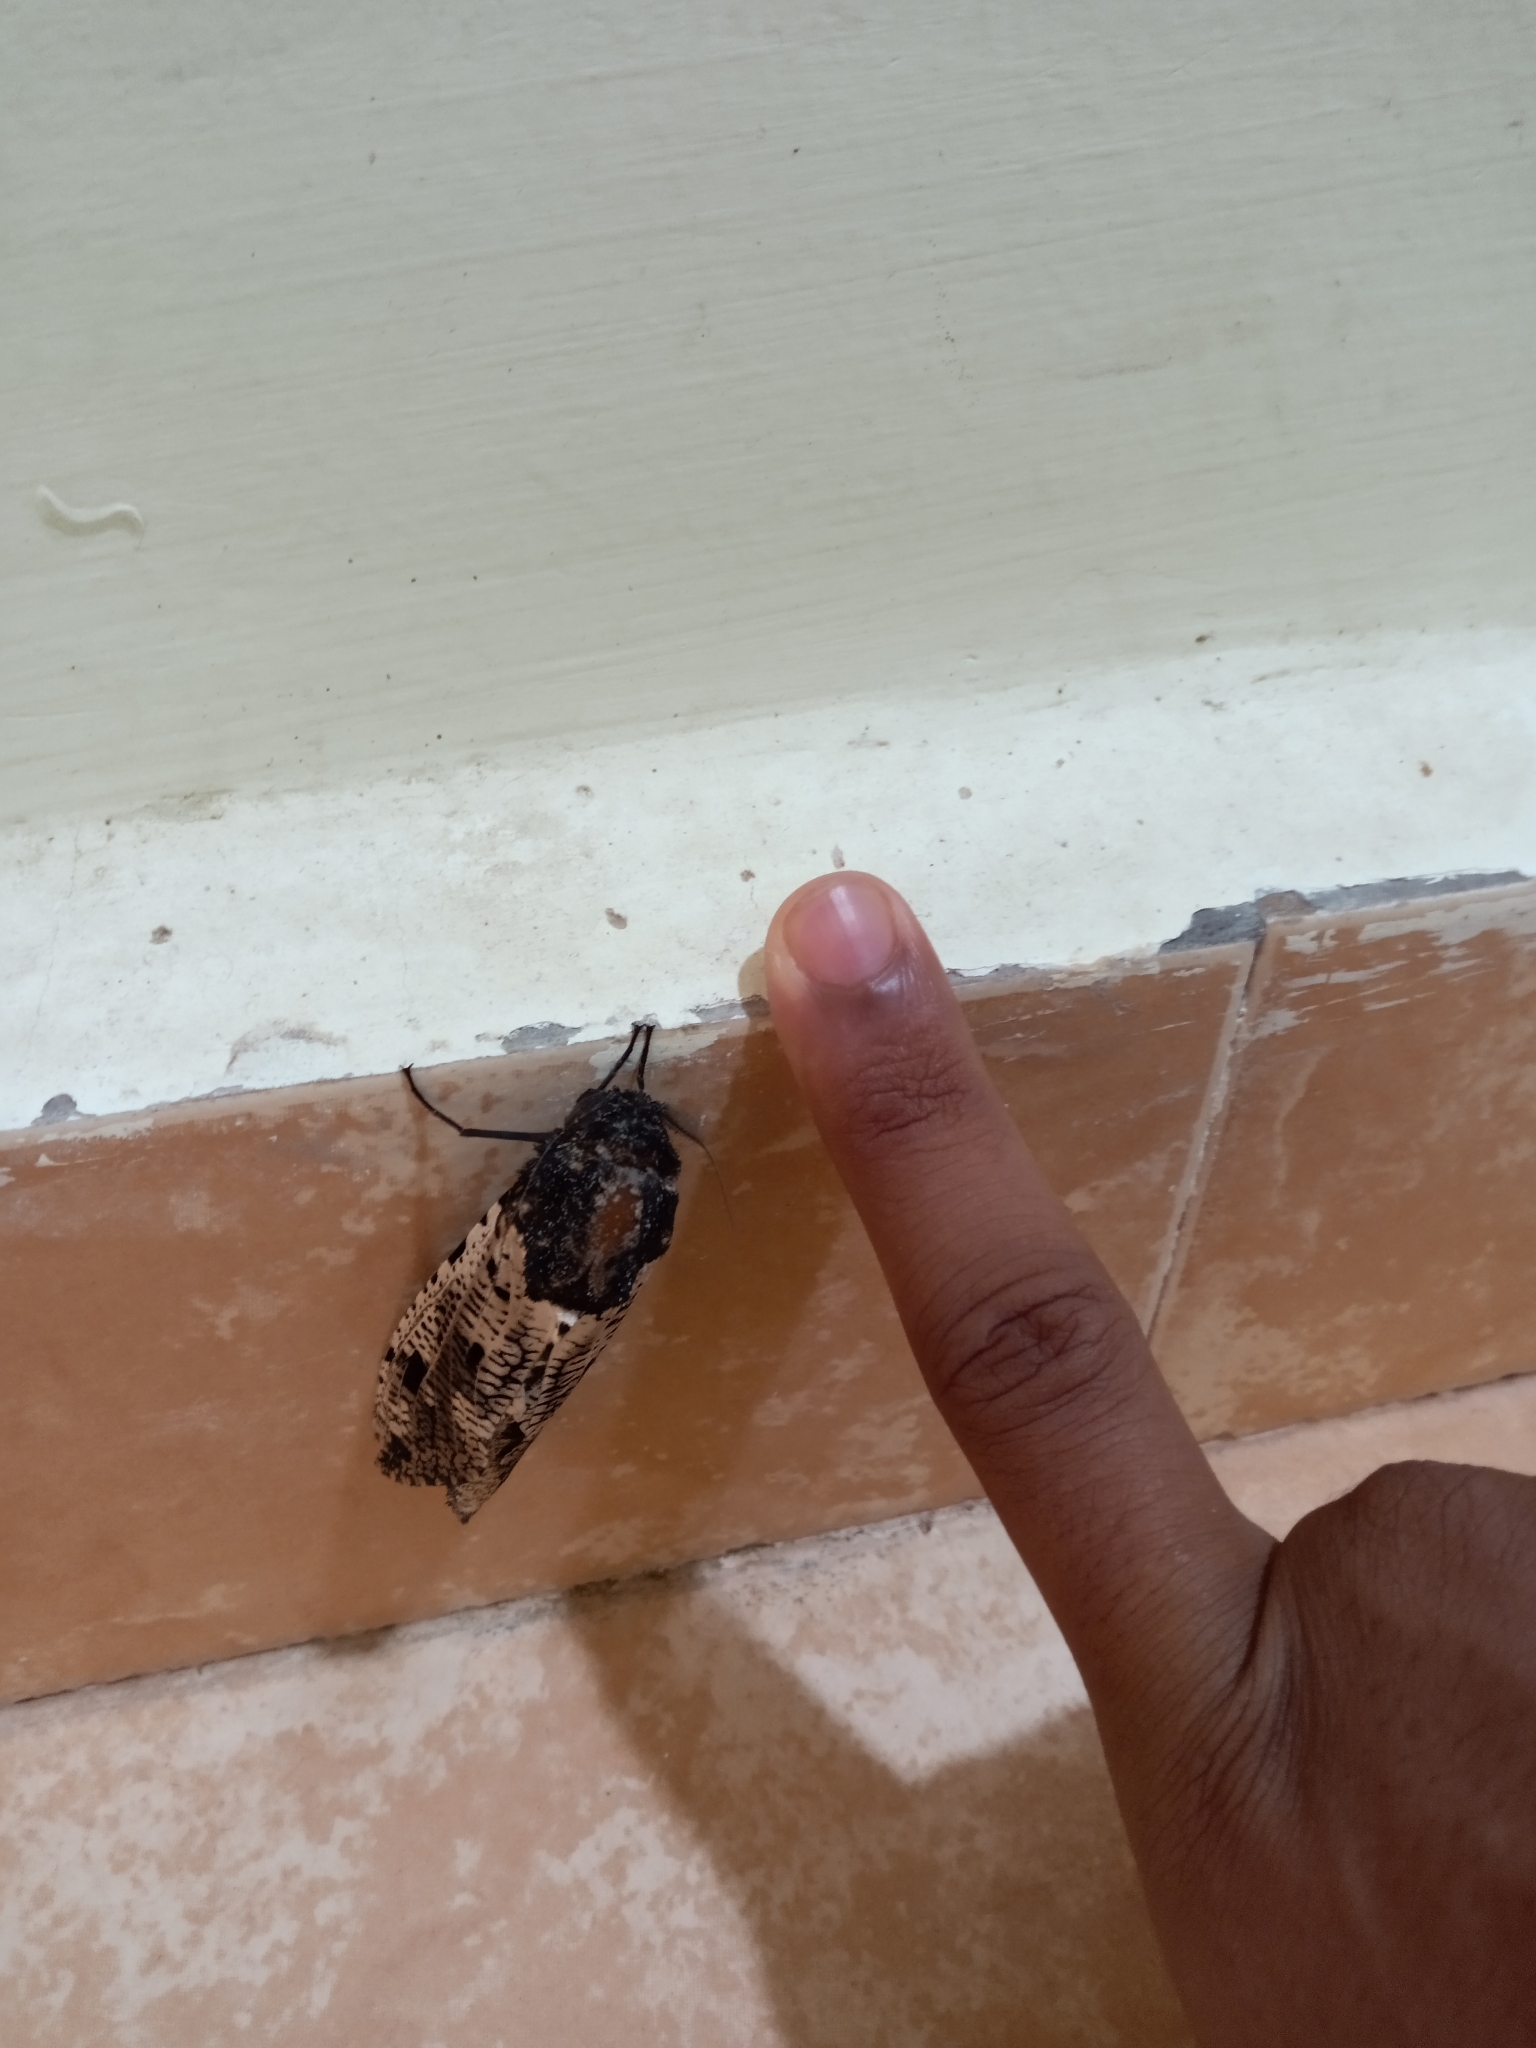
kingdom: Animalia
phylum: Arthropoda
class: Insecta
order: Lepidoptera
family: Cossidae
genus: Xyleutes
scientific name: Xyleutes strix
